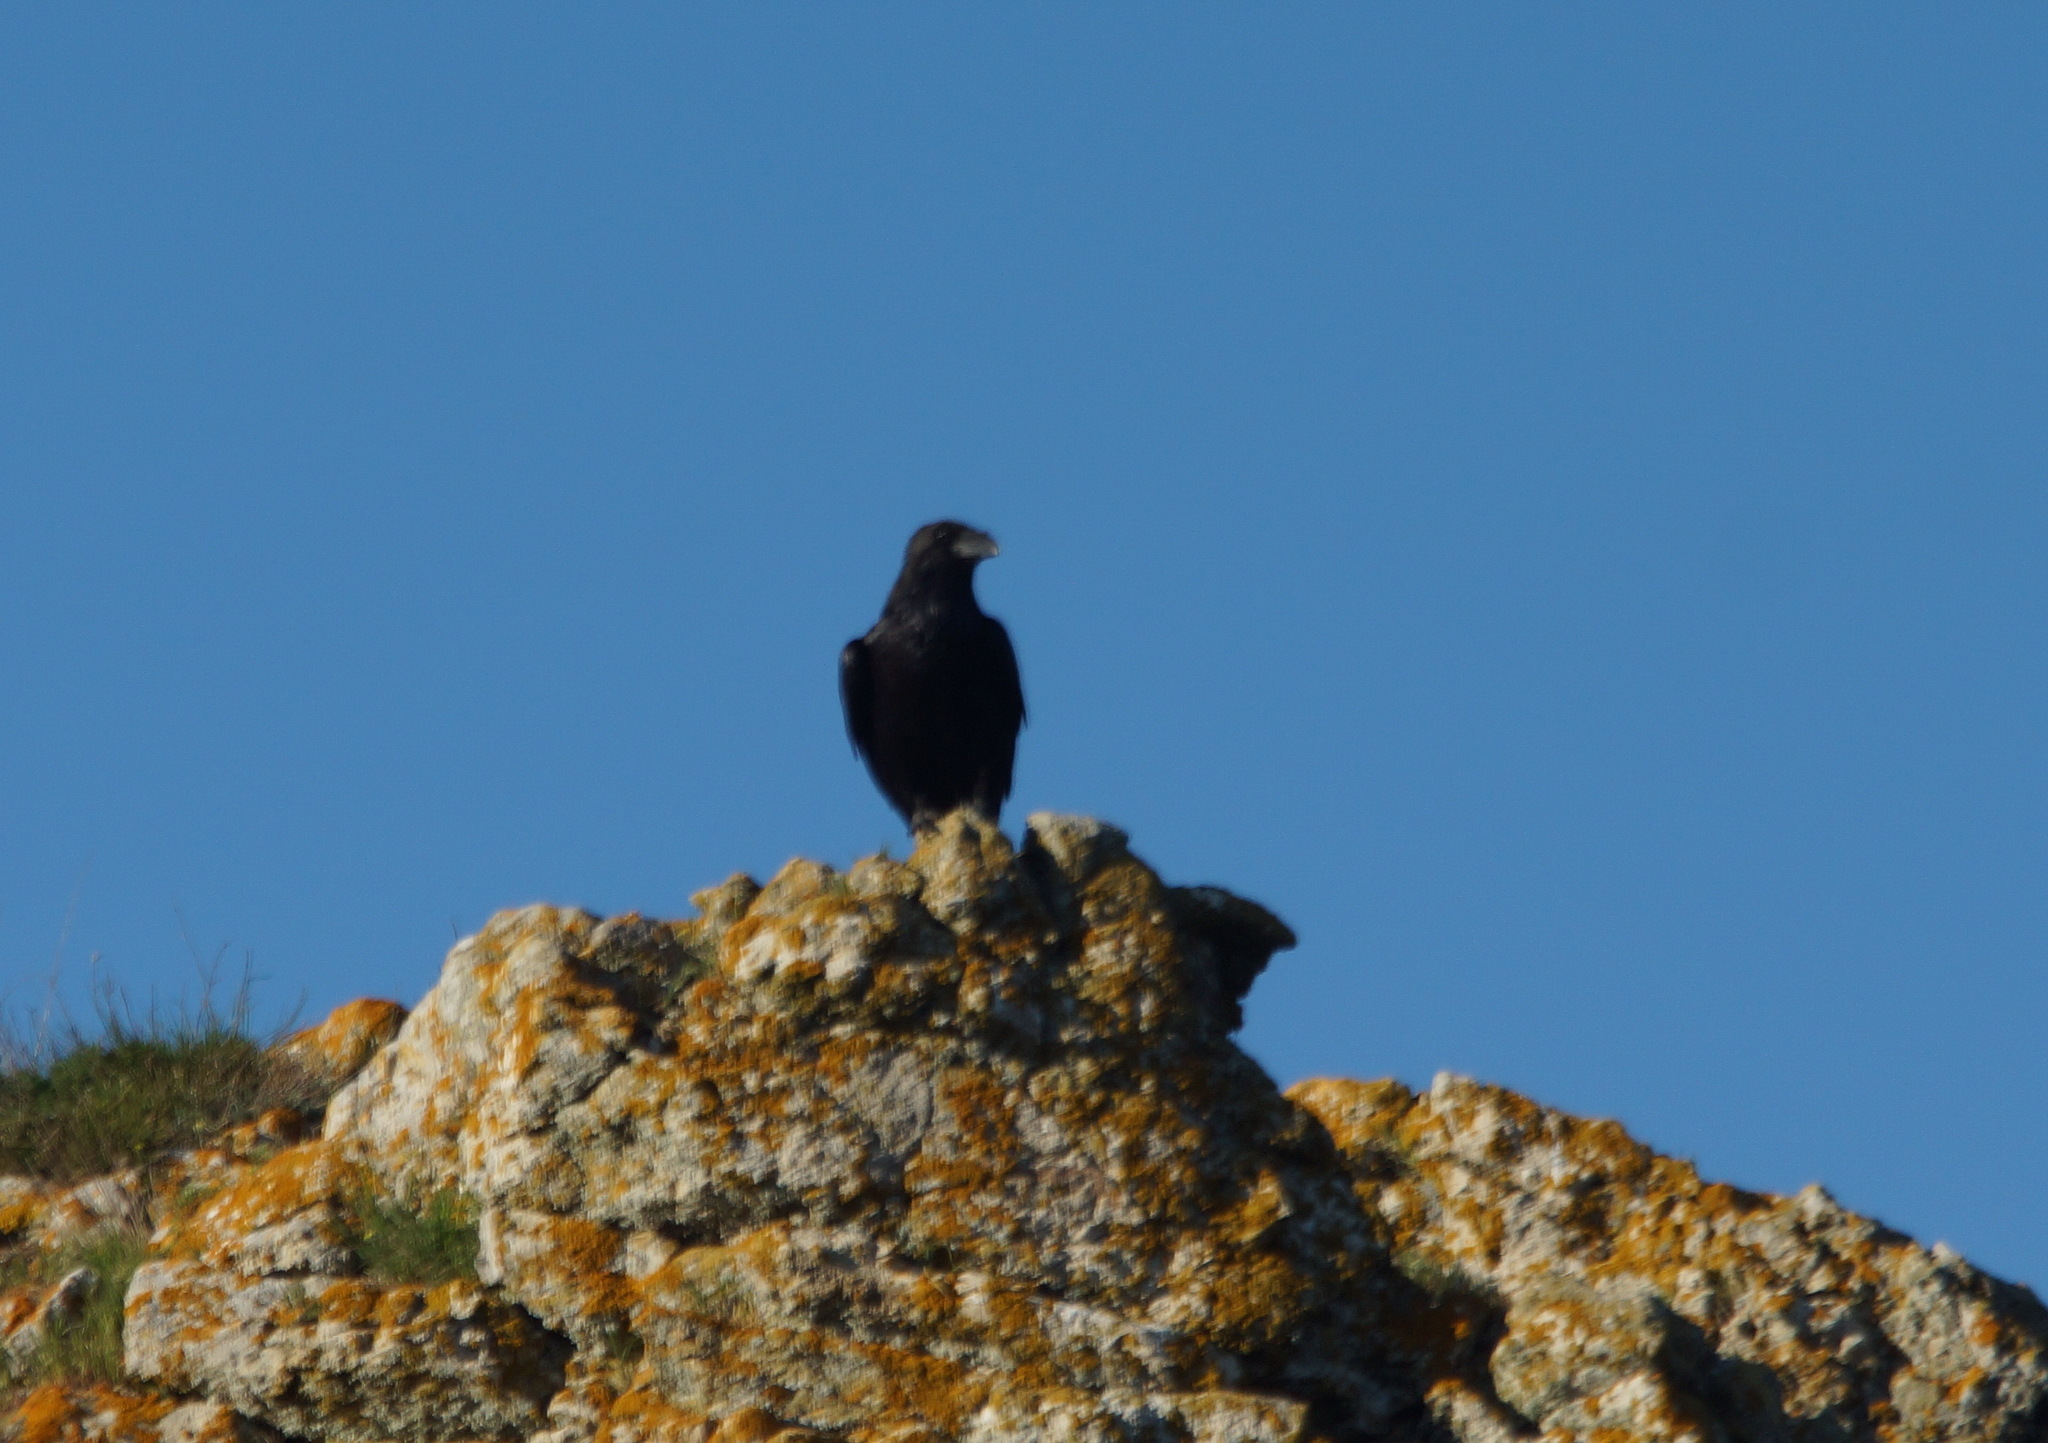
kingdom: Animalia
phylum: Chordata
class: Aves
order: Passeriformes
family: Corvidae
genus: Corvus
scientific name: Corvus corax
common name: Common raven
